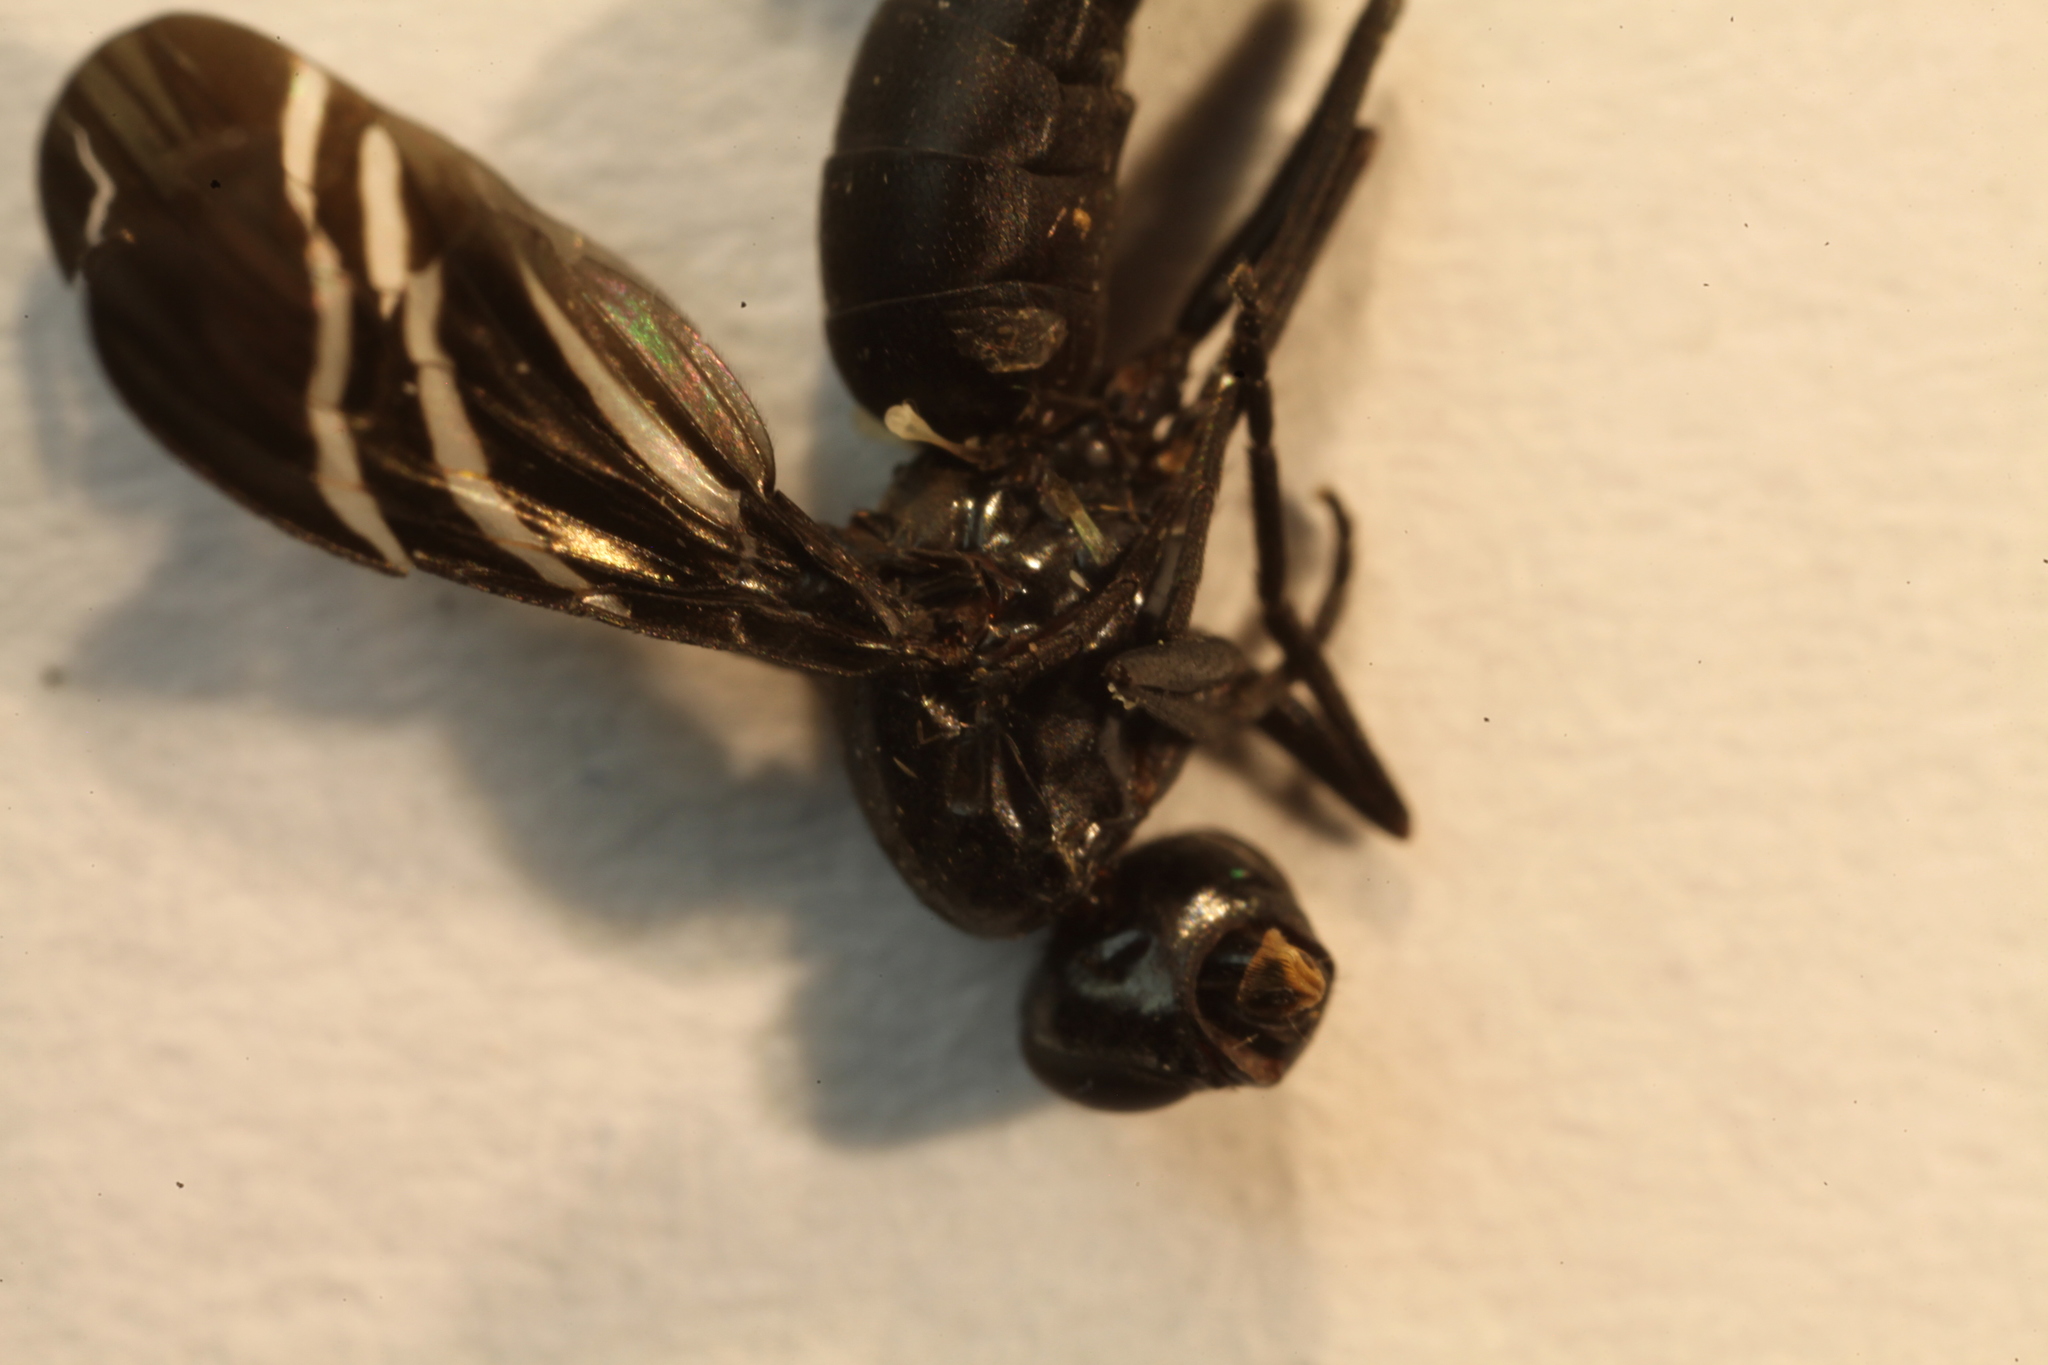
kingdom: Animalia
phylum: Arthropoda
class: Insecta
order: Diptera
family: Ulidiidae
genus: Tritoxa
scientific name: Tritoxa flexa
